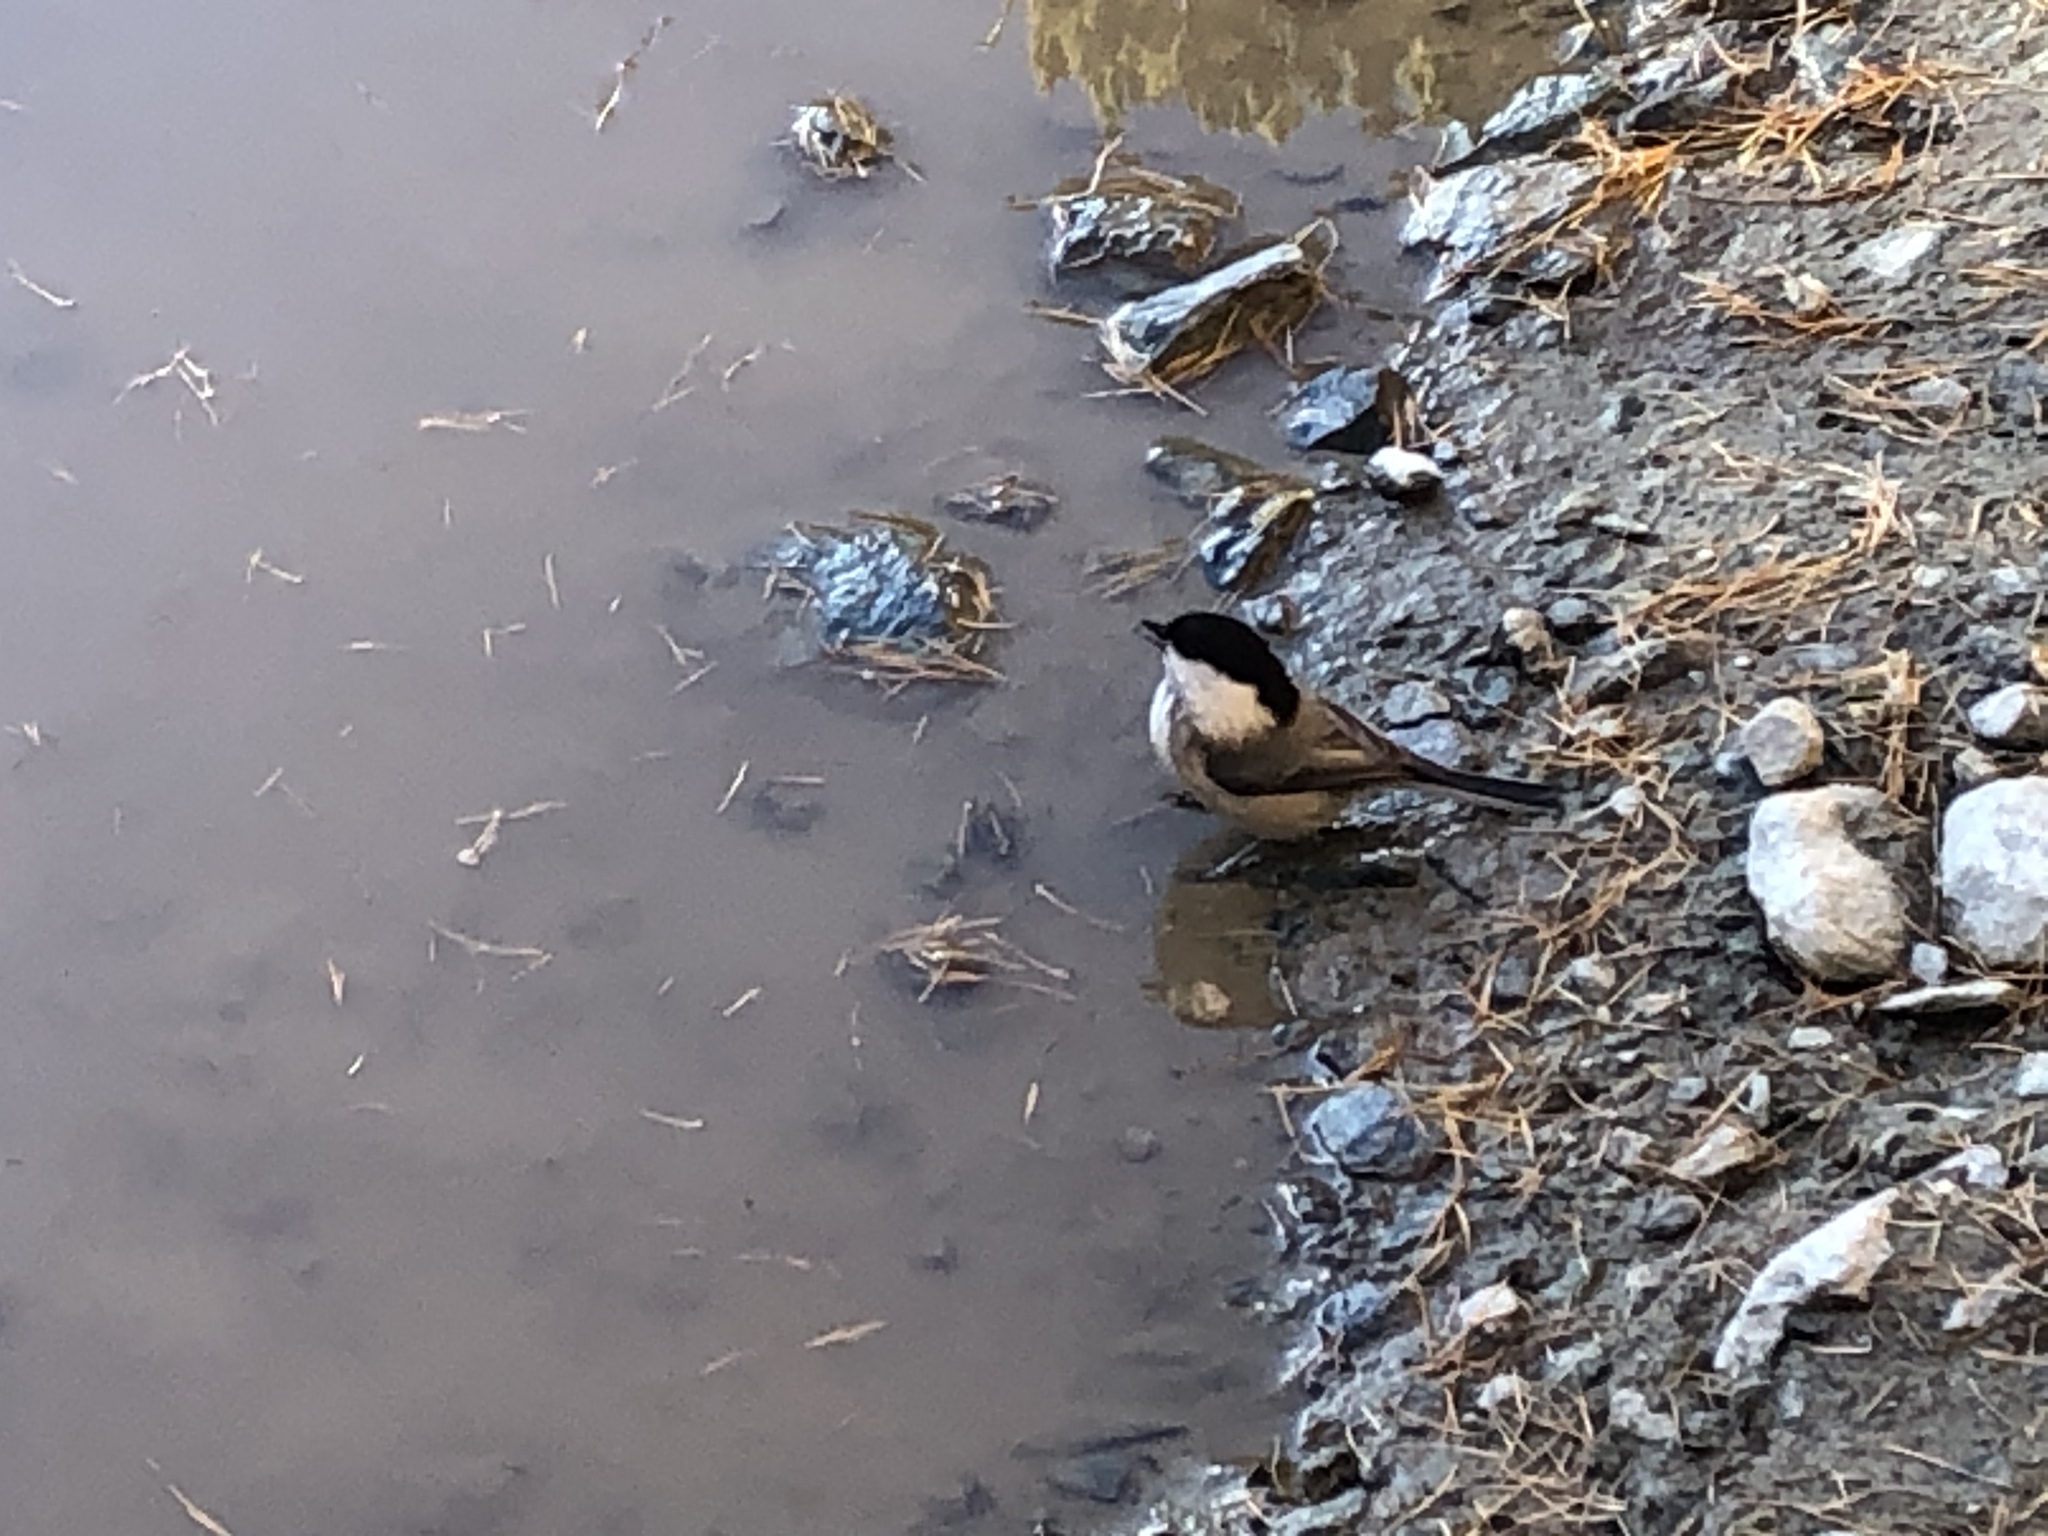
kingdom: Animalia
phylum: Chordata
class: Aves
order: Passeriformes
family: Paridae
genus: Poecile
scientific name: Poecile montanus
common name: Willow tit
